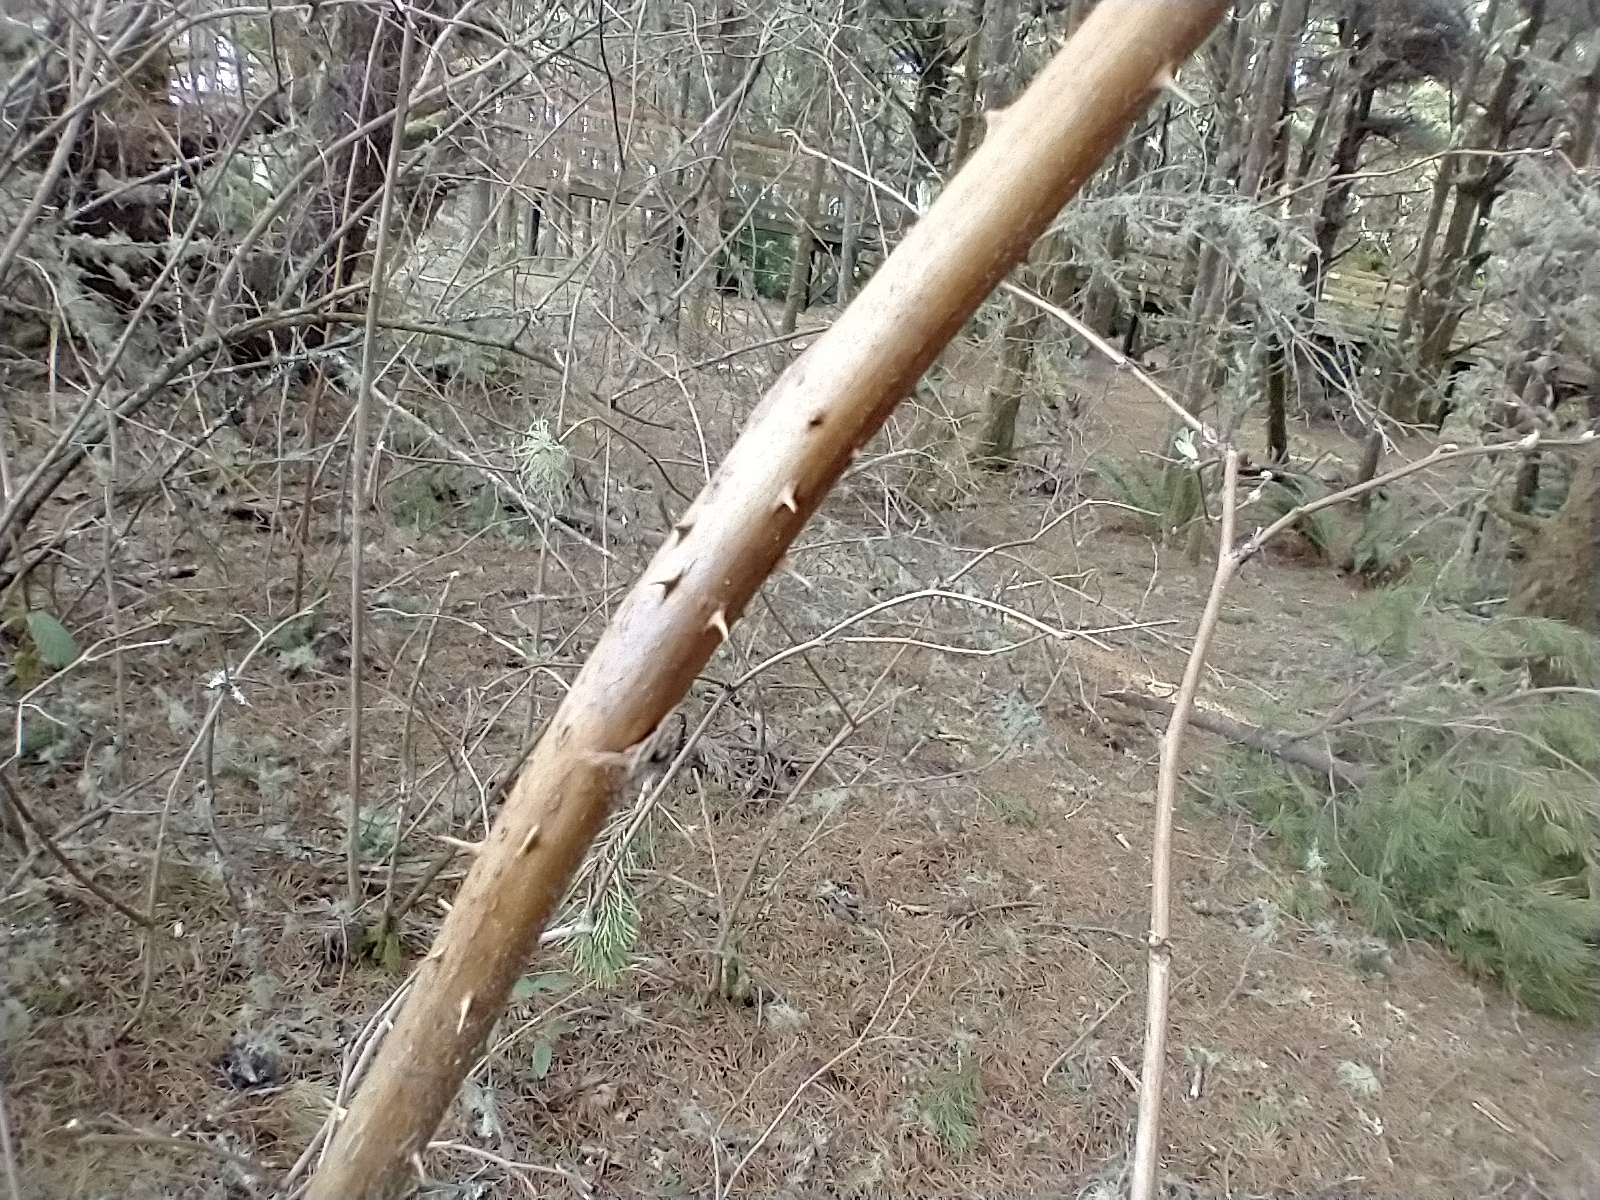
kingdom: Plantae
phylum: Tracheophyta
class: Magnoliopsida
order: Rosales
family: Rosaceae
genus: Rubus
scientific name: Rubus spectabilis
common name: Salmonberry
